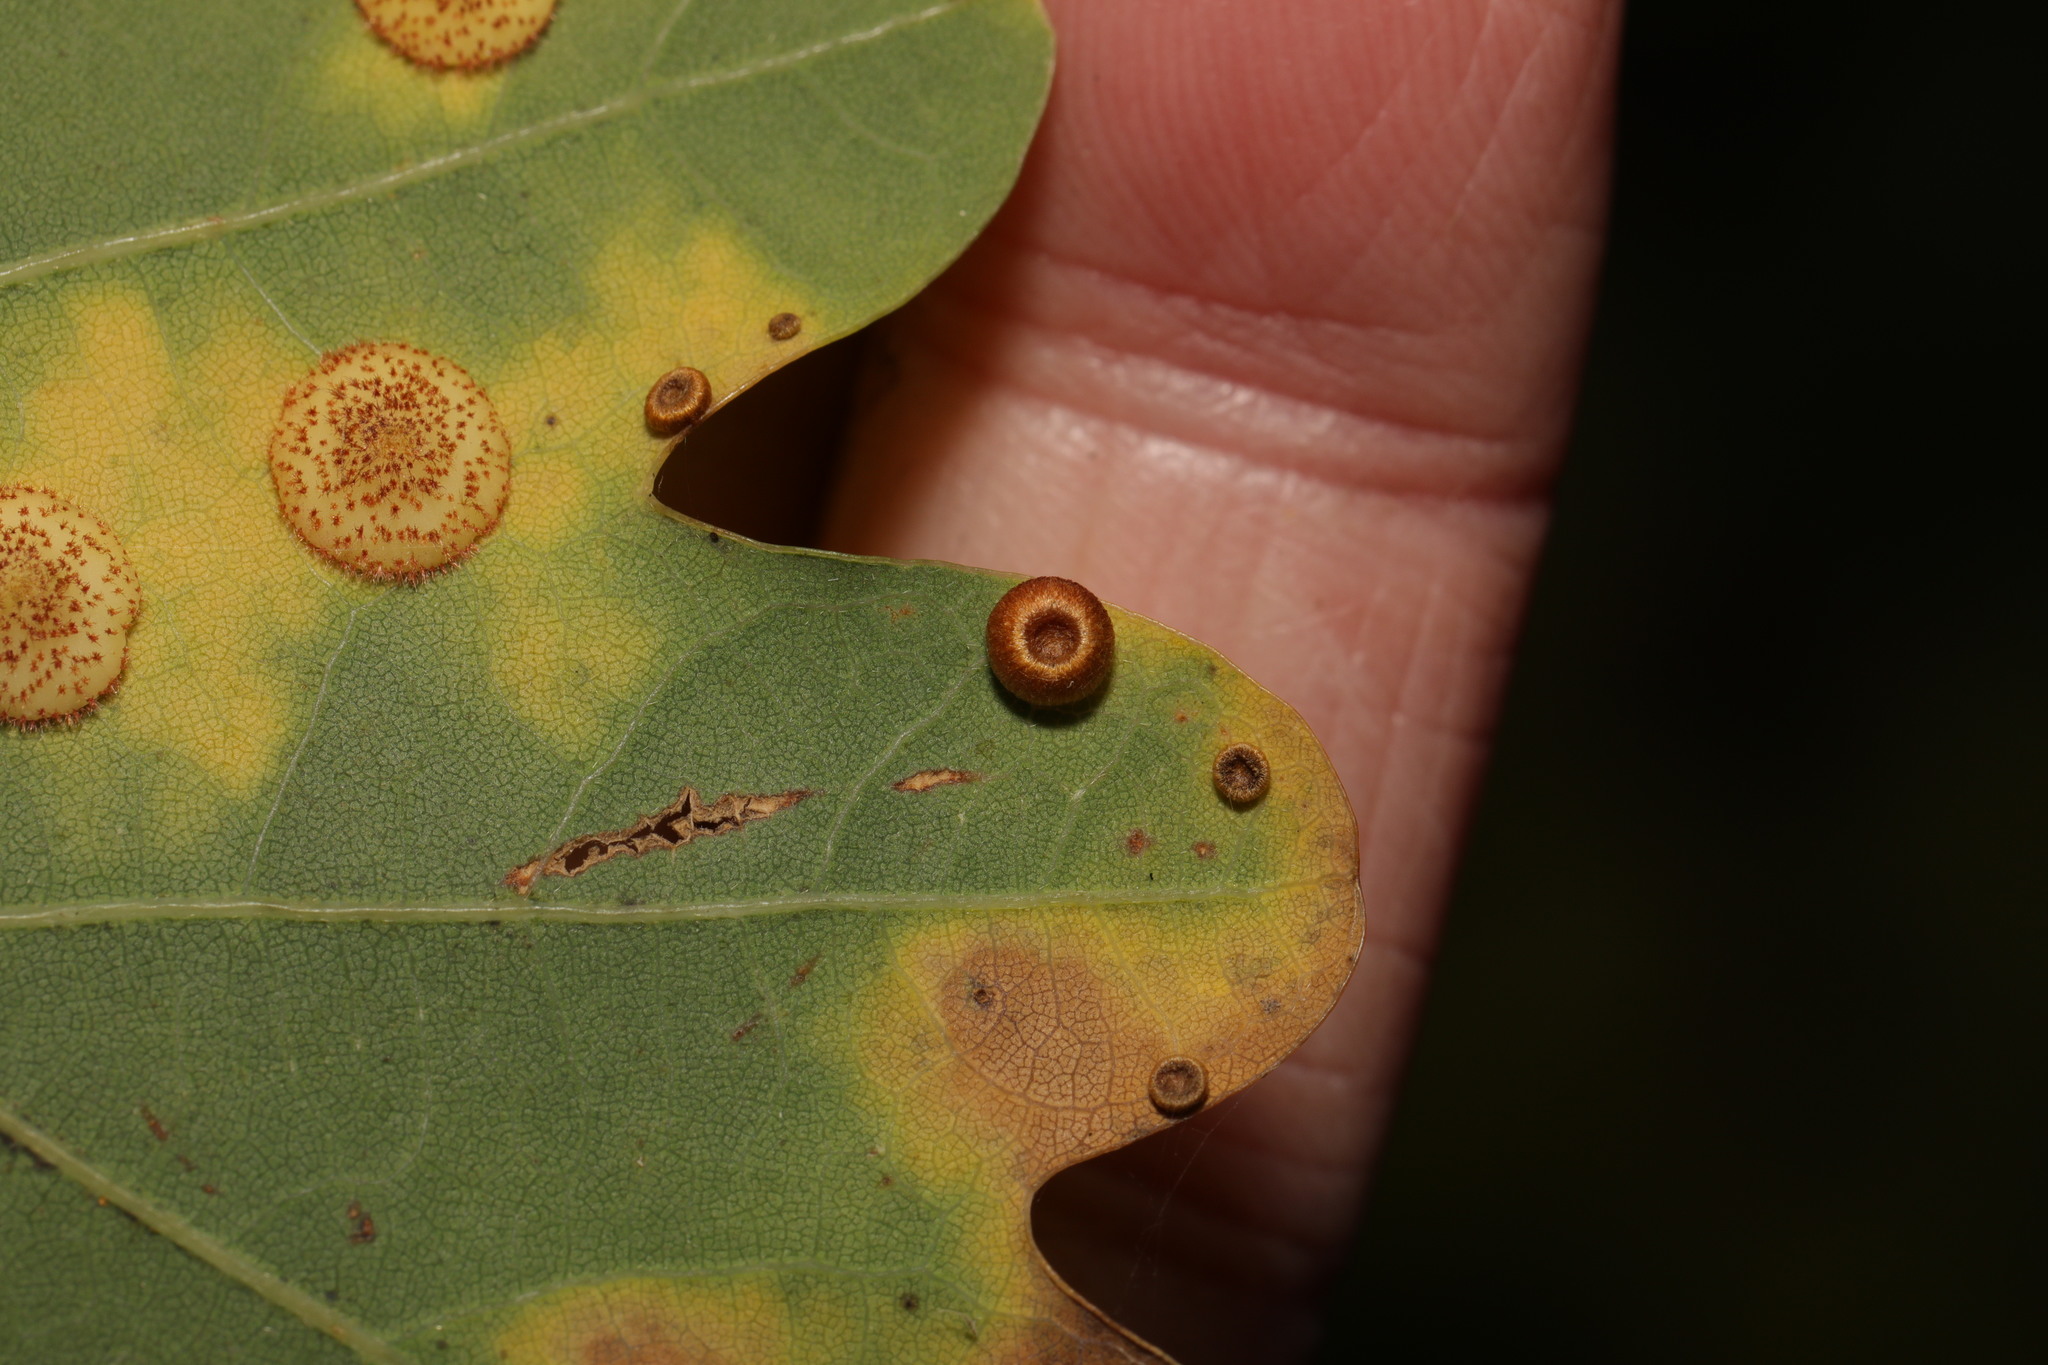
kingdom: Animalia
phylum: Arthropoda
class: Insecta
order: Hymenoptera
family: Cynipidae
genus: Neuroterus
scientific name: Neuroterus numismalis
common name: Silk-button spangle gall
